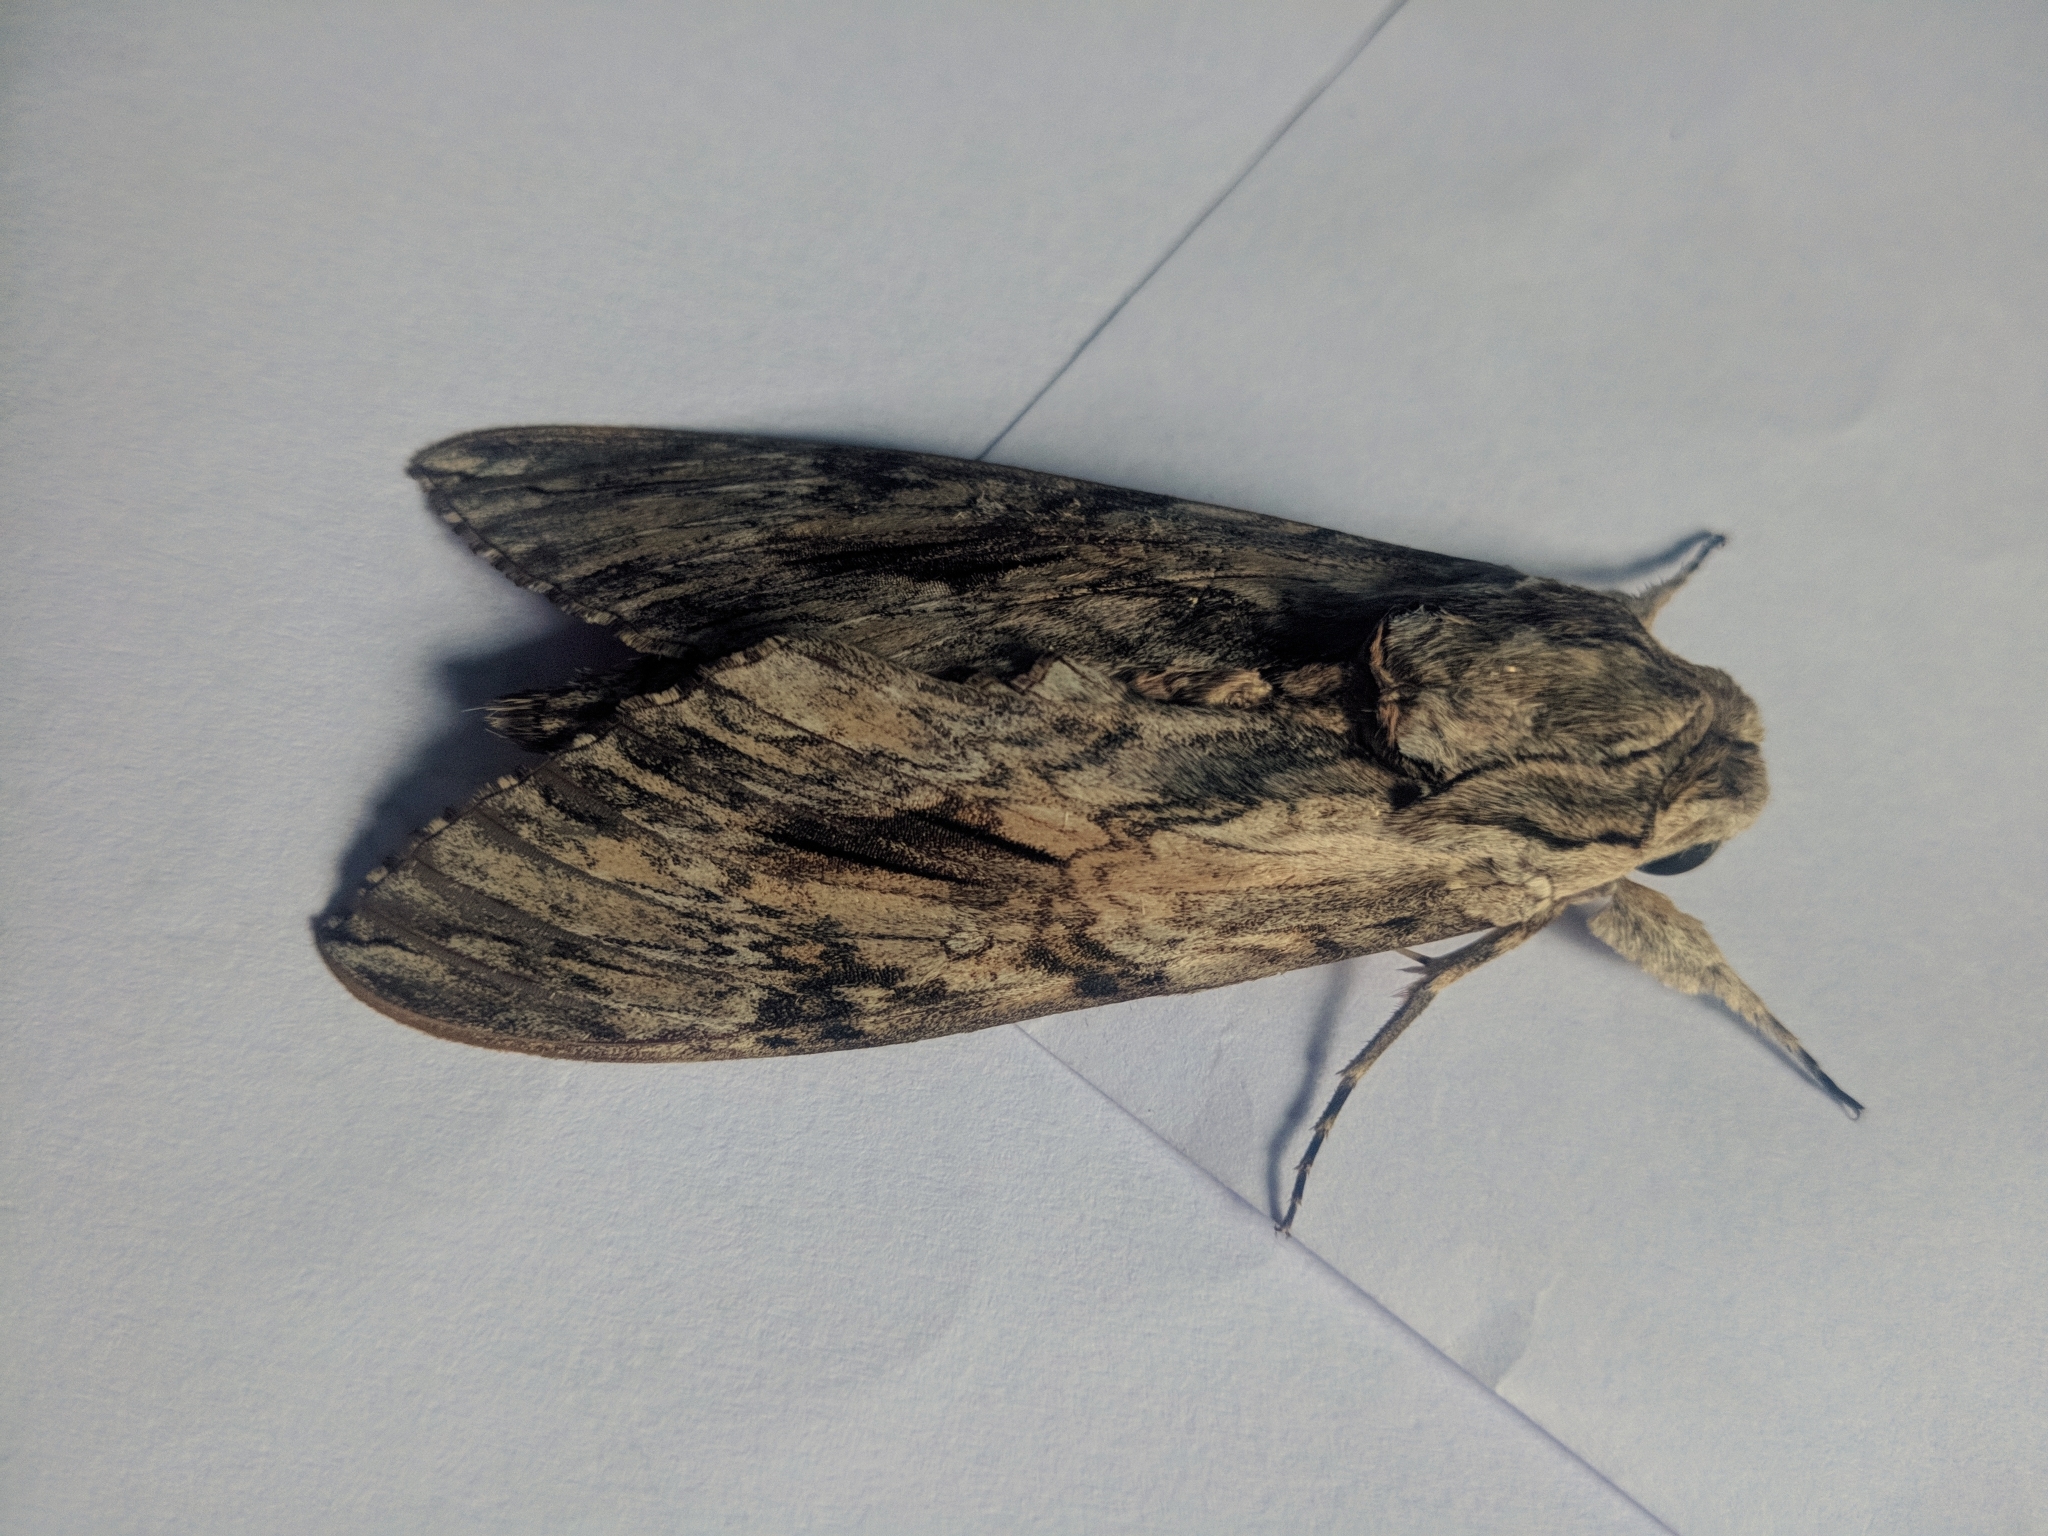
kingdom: Animalia
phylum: Arthropoda
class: Insecta
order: Lepidoptera
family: Sphingidae
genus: Agrius
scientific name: Agrius convolvuli
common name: Convolvulus hawkmoth
